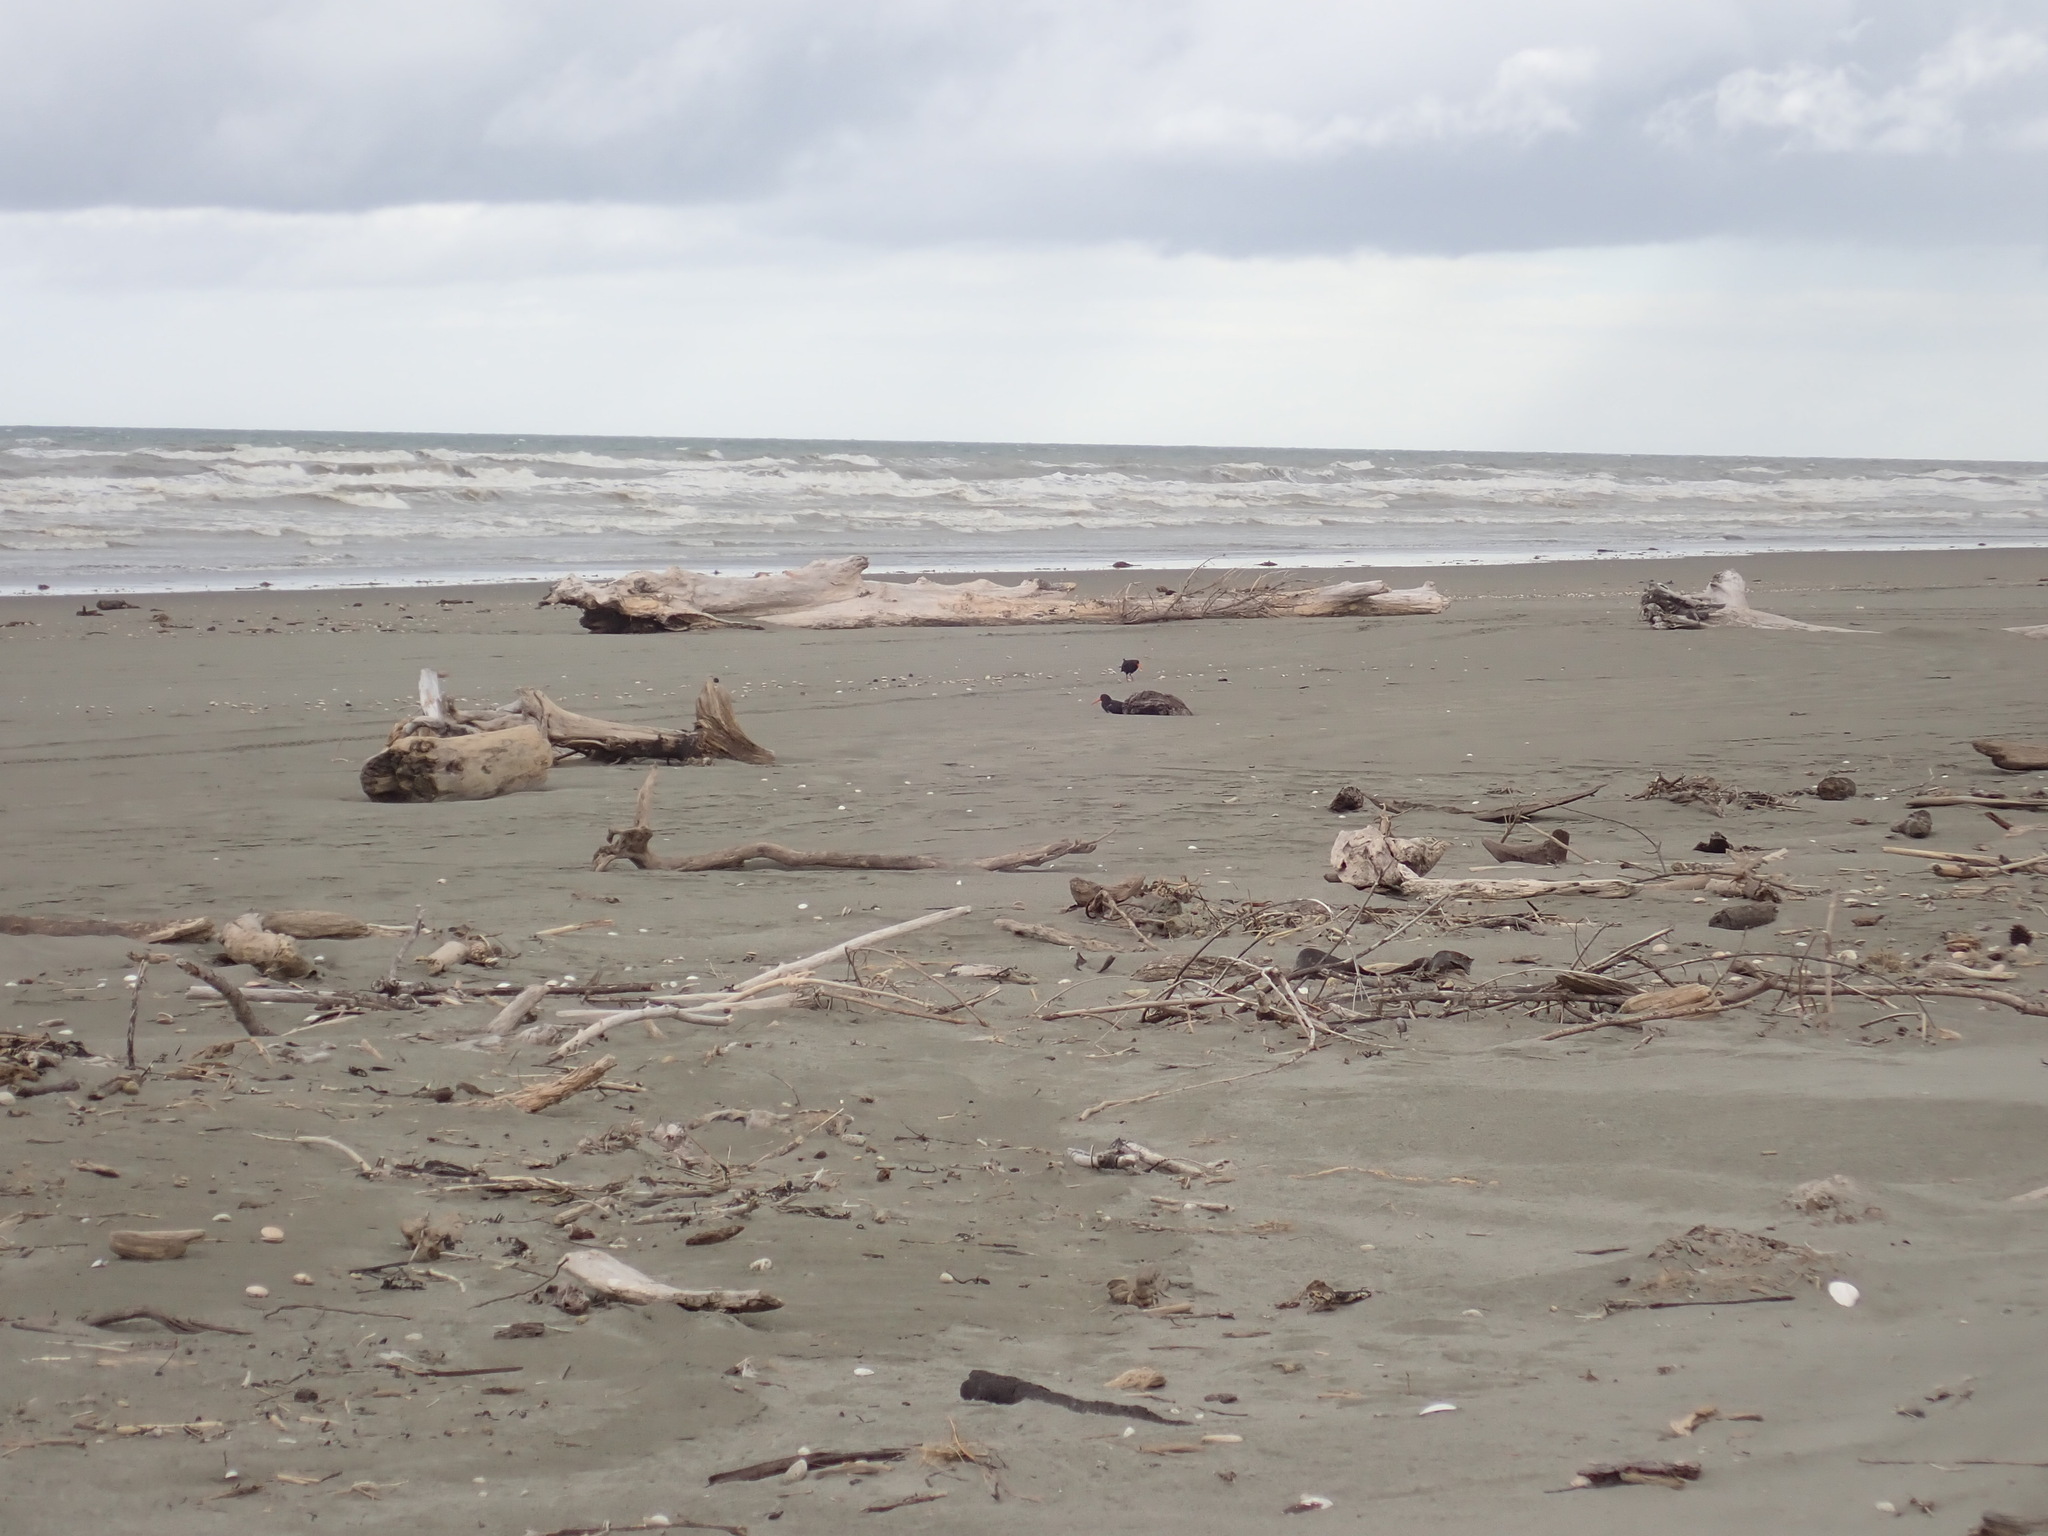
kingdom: Animalia
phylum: Chordata
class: Aves
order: Charadriiformes
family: Haematopodidae
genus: Haematopus
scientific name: Haematopus unicolor
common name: Variable oystercatcher
